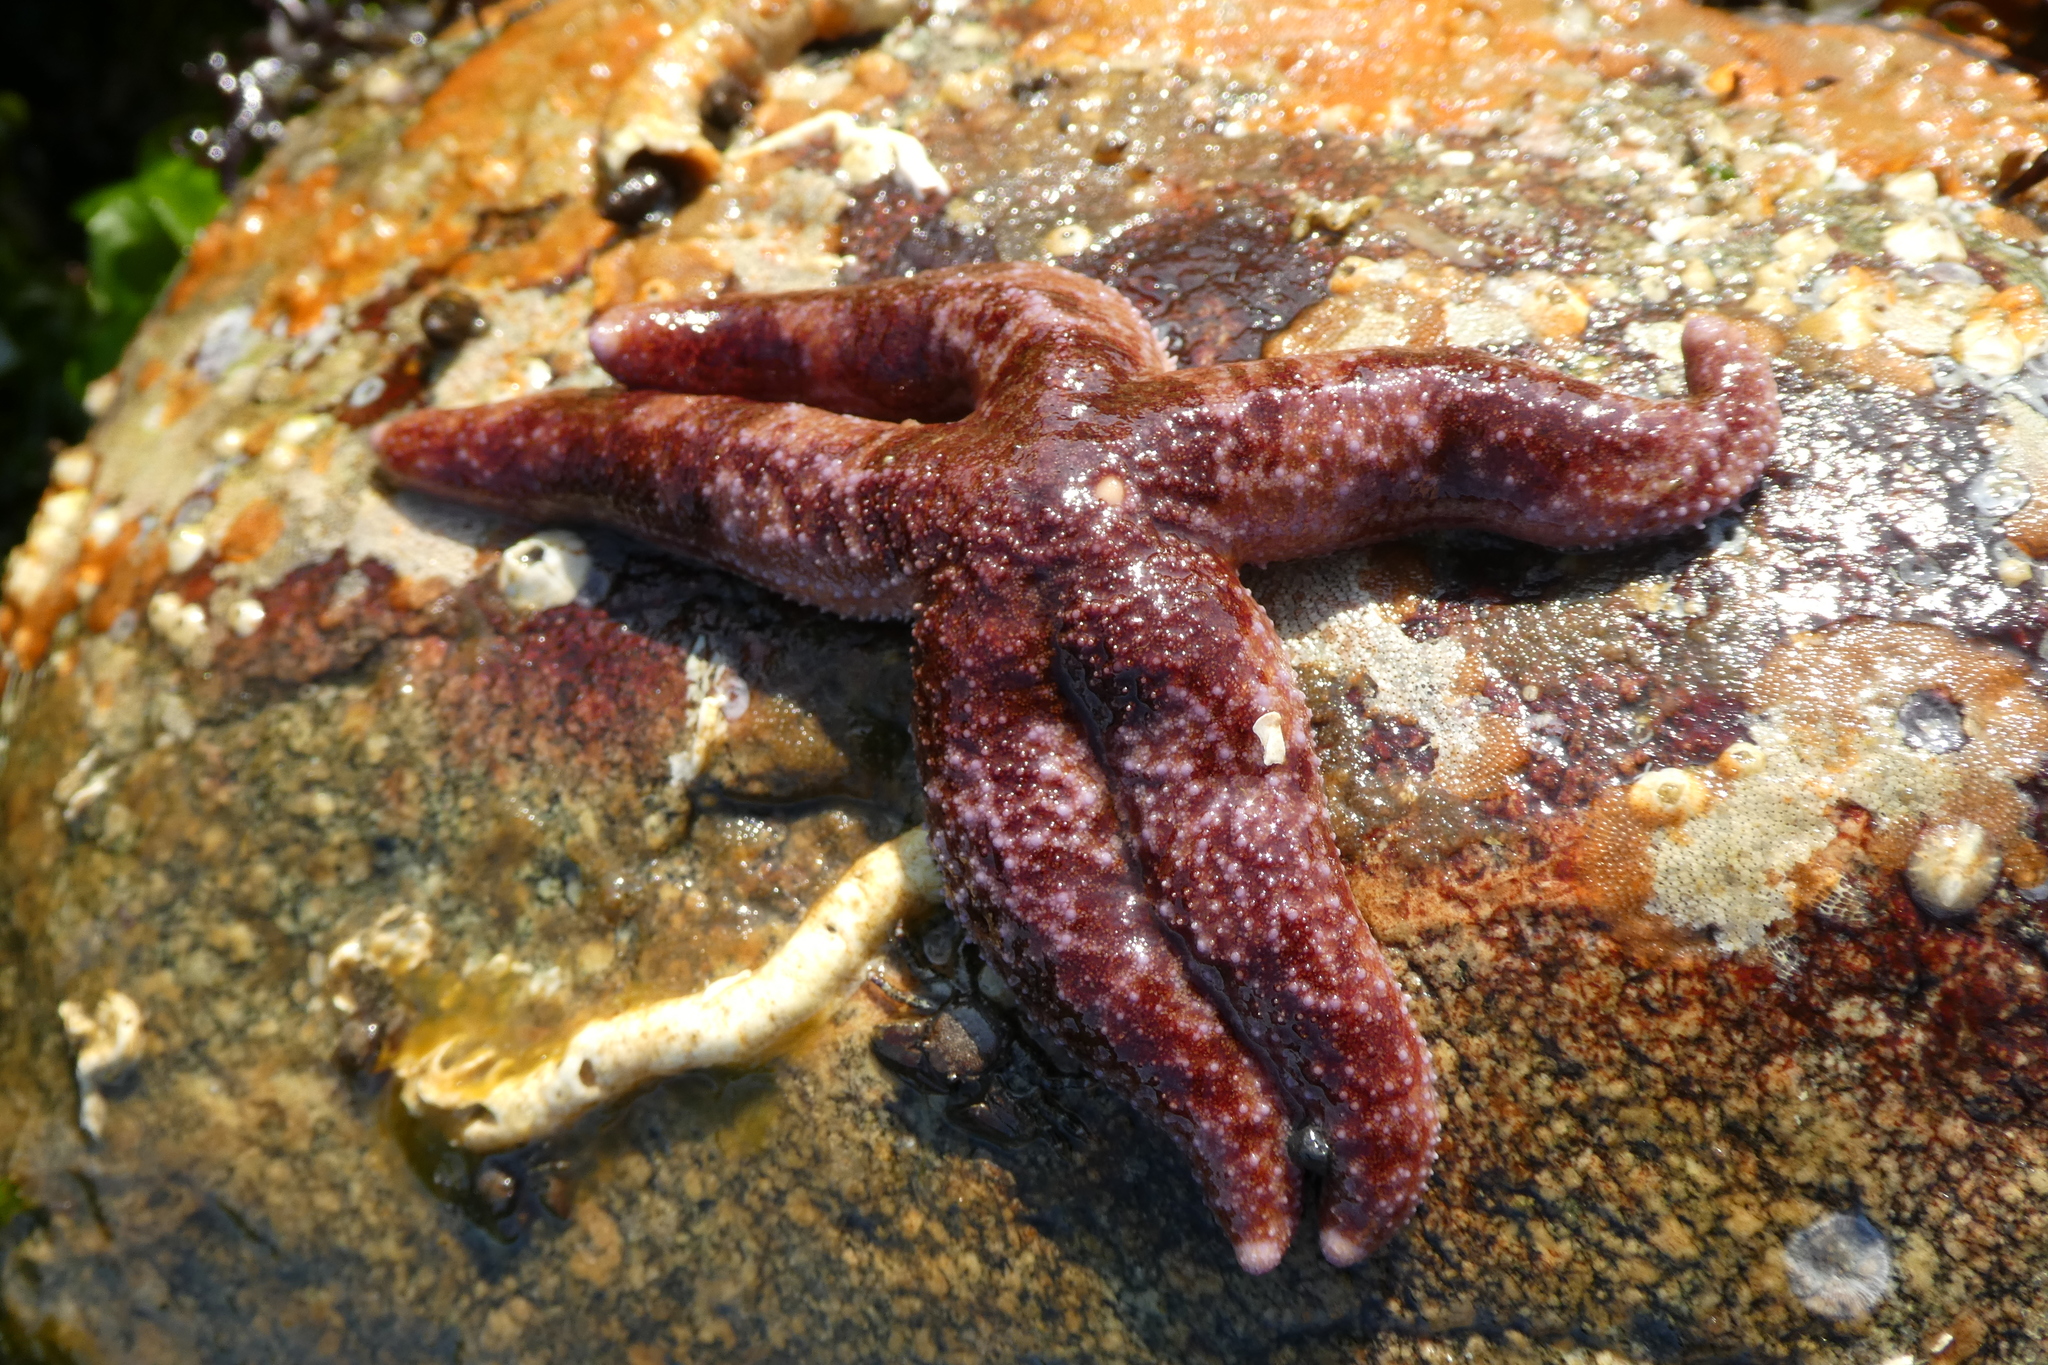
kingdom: Animalia
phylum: Echinodermata
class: Asteroidea
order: Forcipulatida
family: Asteriidae
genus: Evasterias
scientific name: Evasterias troschelii
